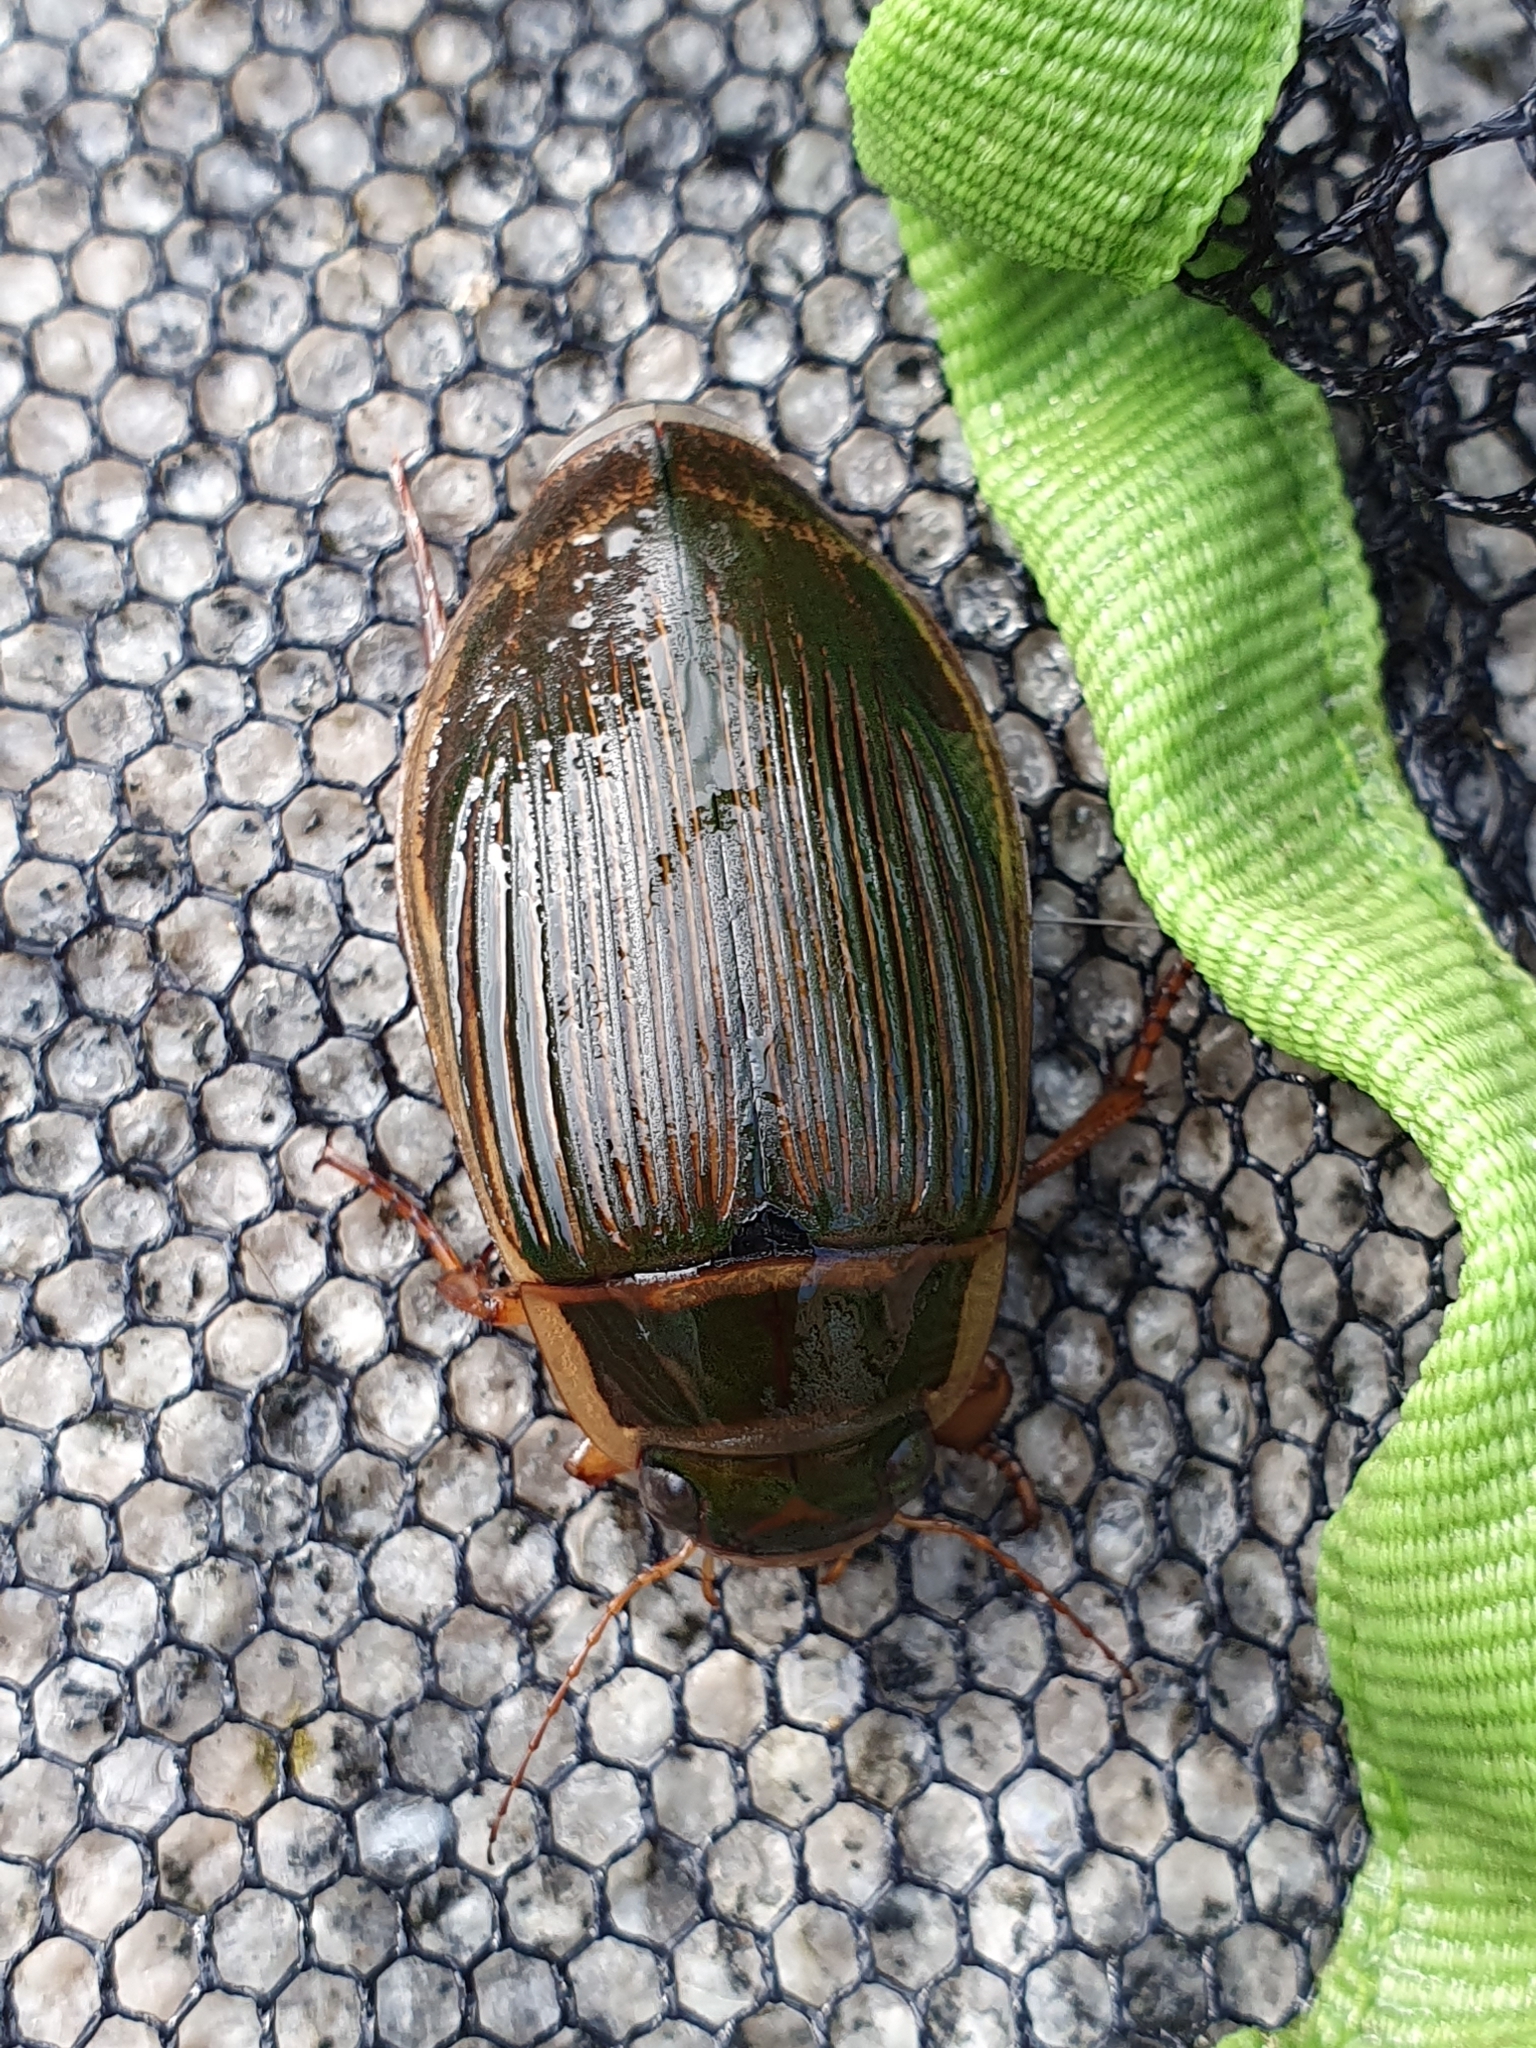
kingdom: Animalia
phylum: Arthropoda
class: Insecta
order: Coleoptera
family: Dytiscidae
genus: Dytiscus
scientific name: Dytiscus marginalis
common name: Great water beetle
